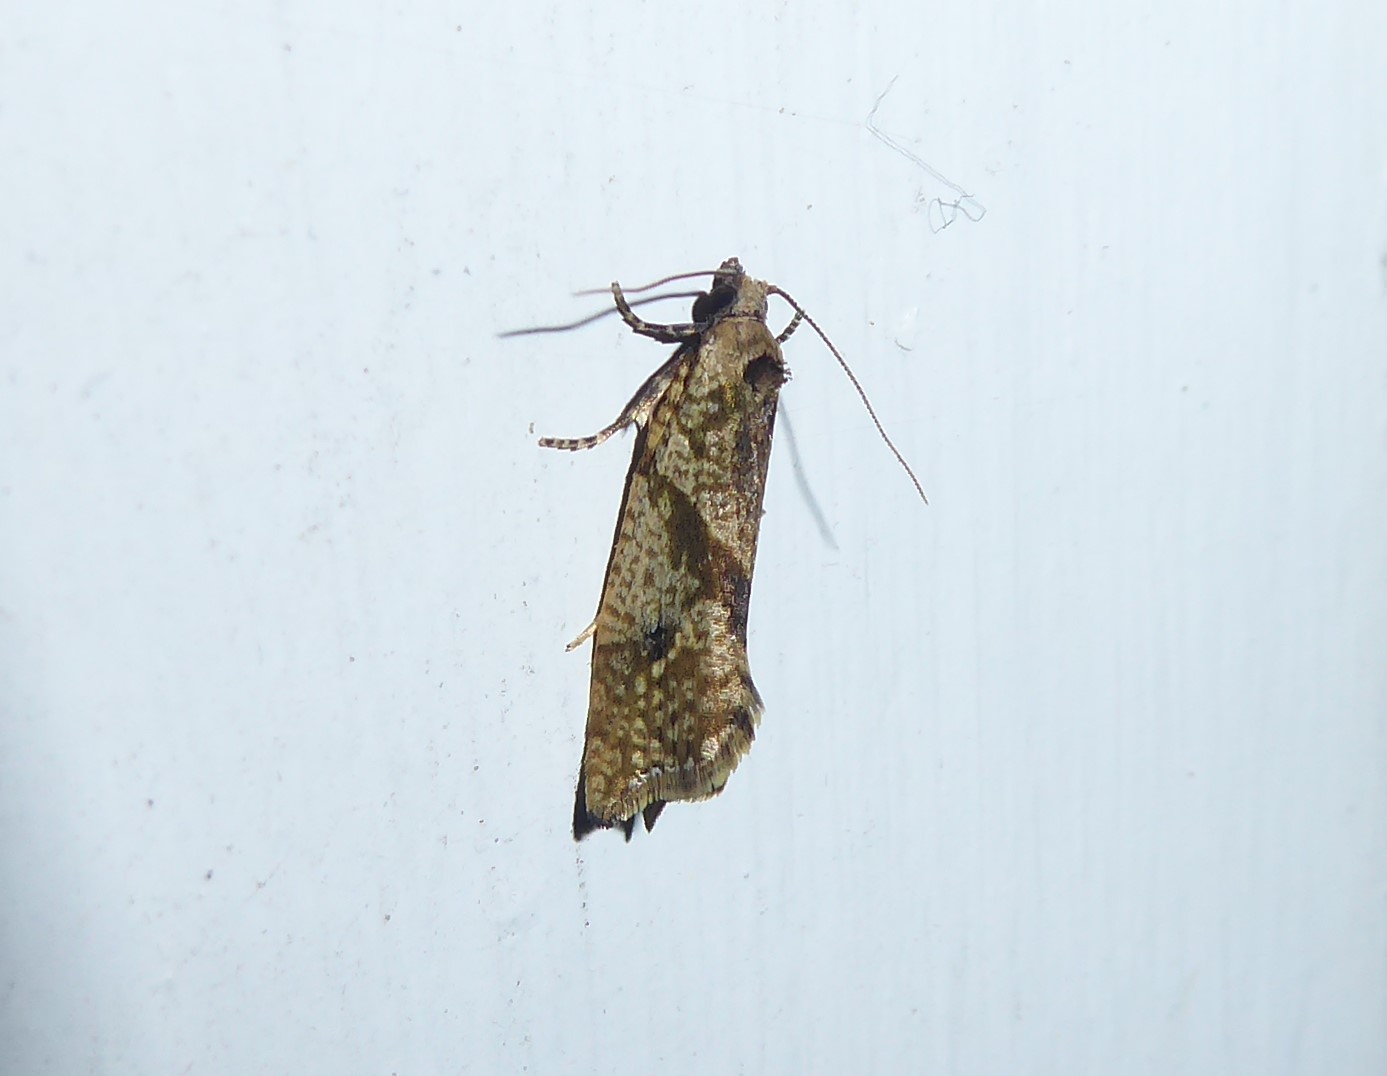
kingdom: Animalia
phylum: Arthropoda
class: Insecta
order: Lepidoptera
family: Tortricidae
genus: Pyrgotis
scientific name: Pyrgotis plagiatana
